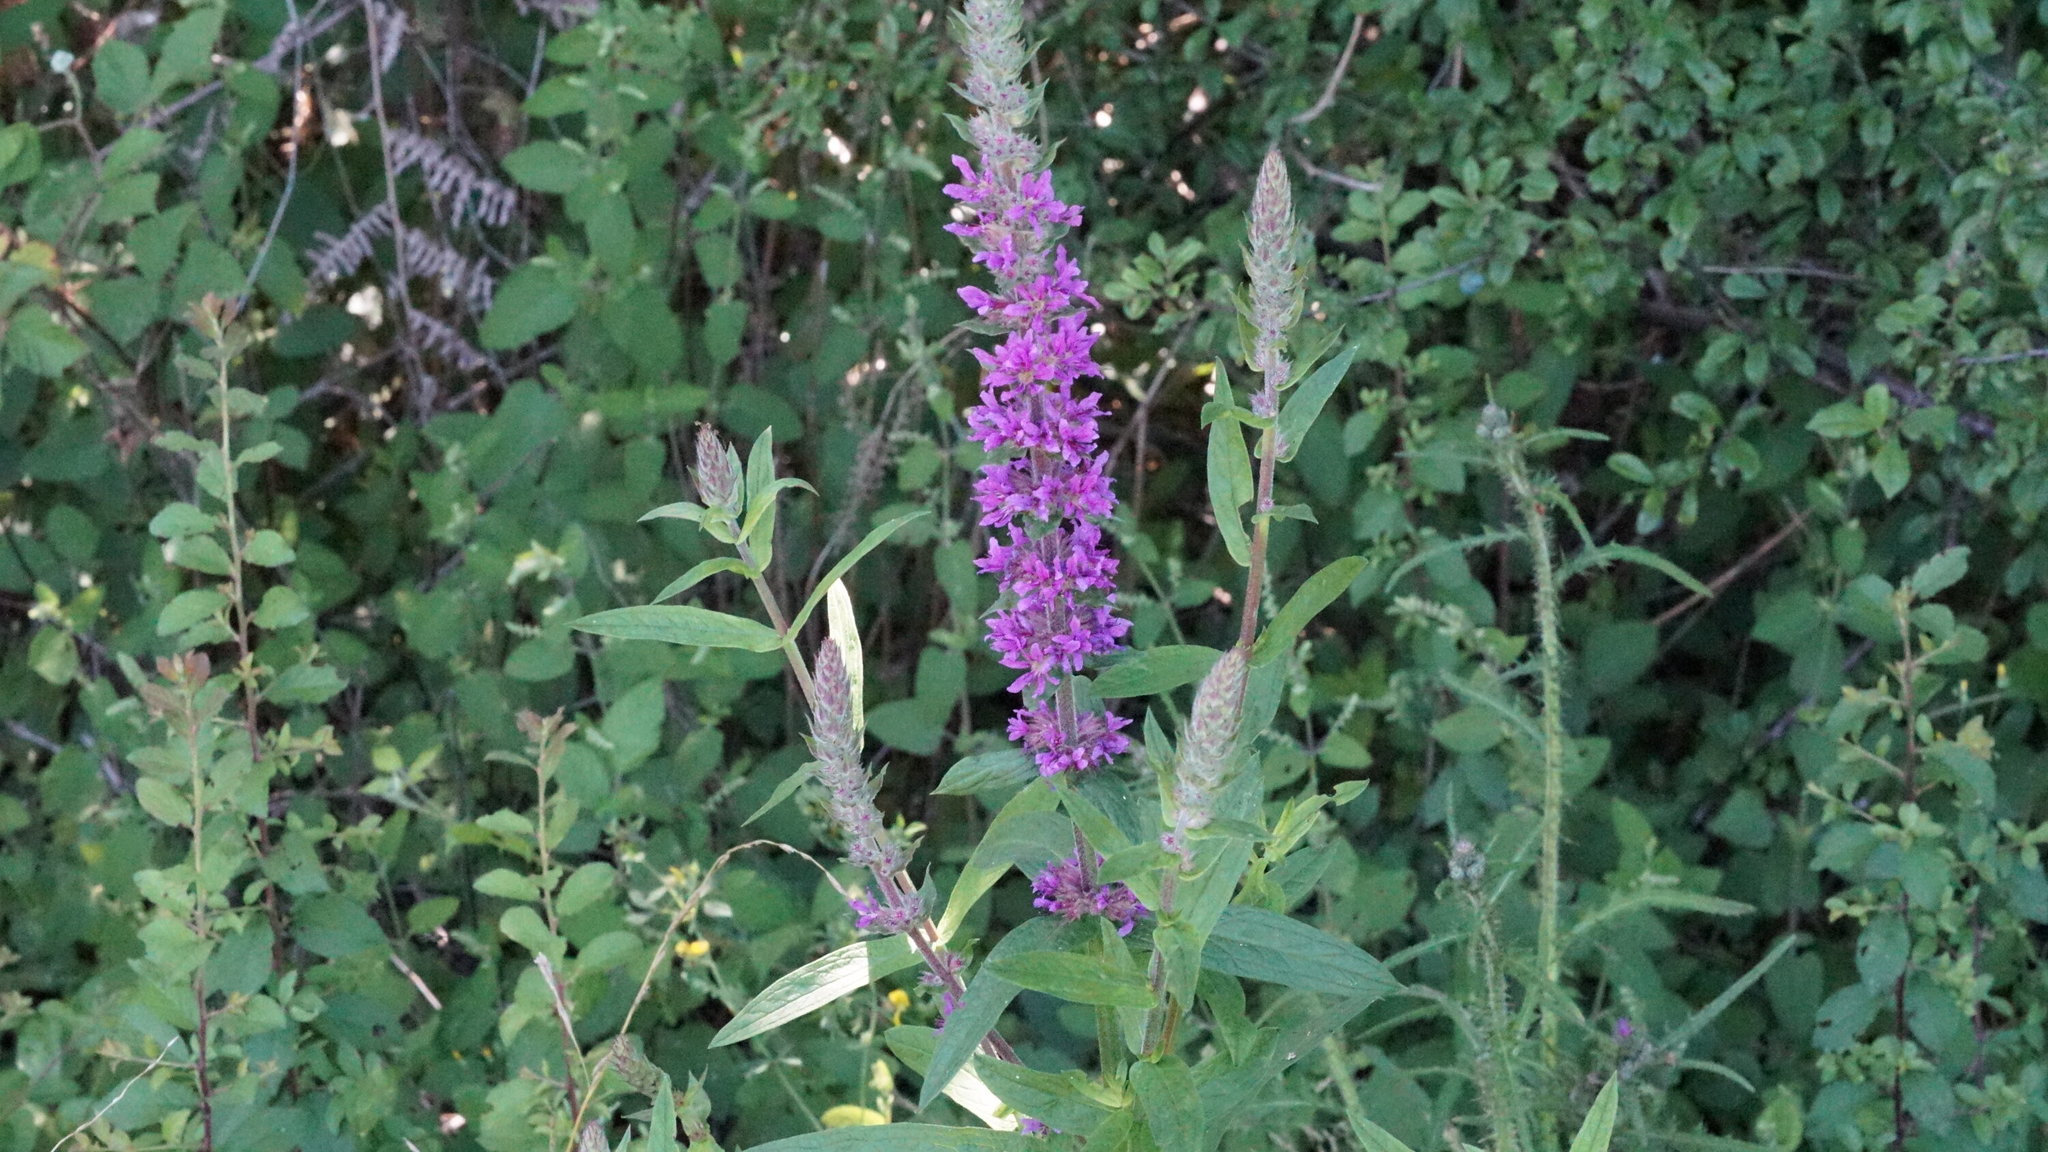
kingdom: Plantae
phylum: Tracheophyta
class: Magnoliopsida
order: Myrtales
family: Lythraceae
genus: Lythrum
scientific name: Lythrum salicaria
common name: Purple loosestrife
